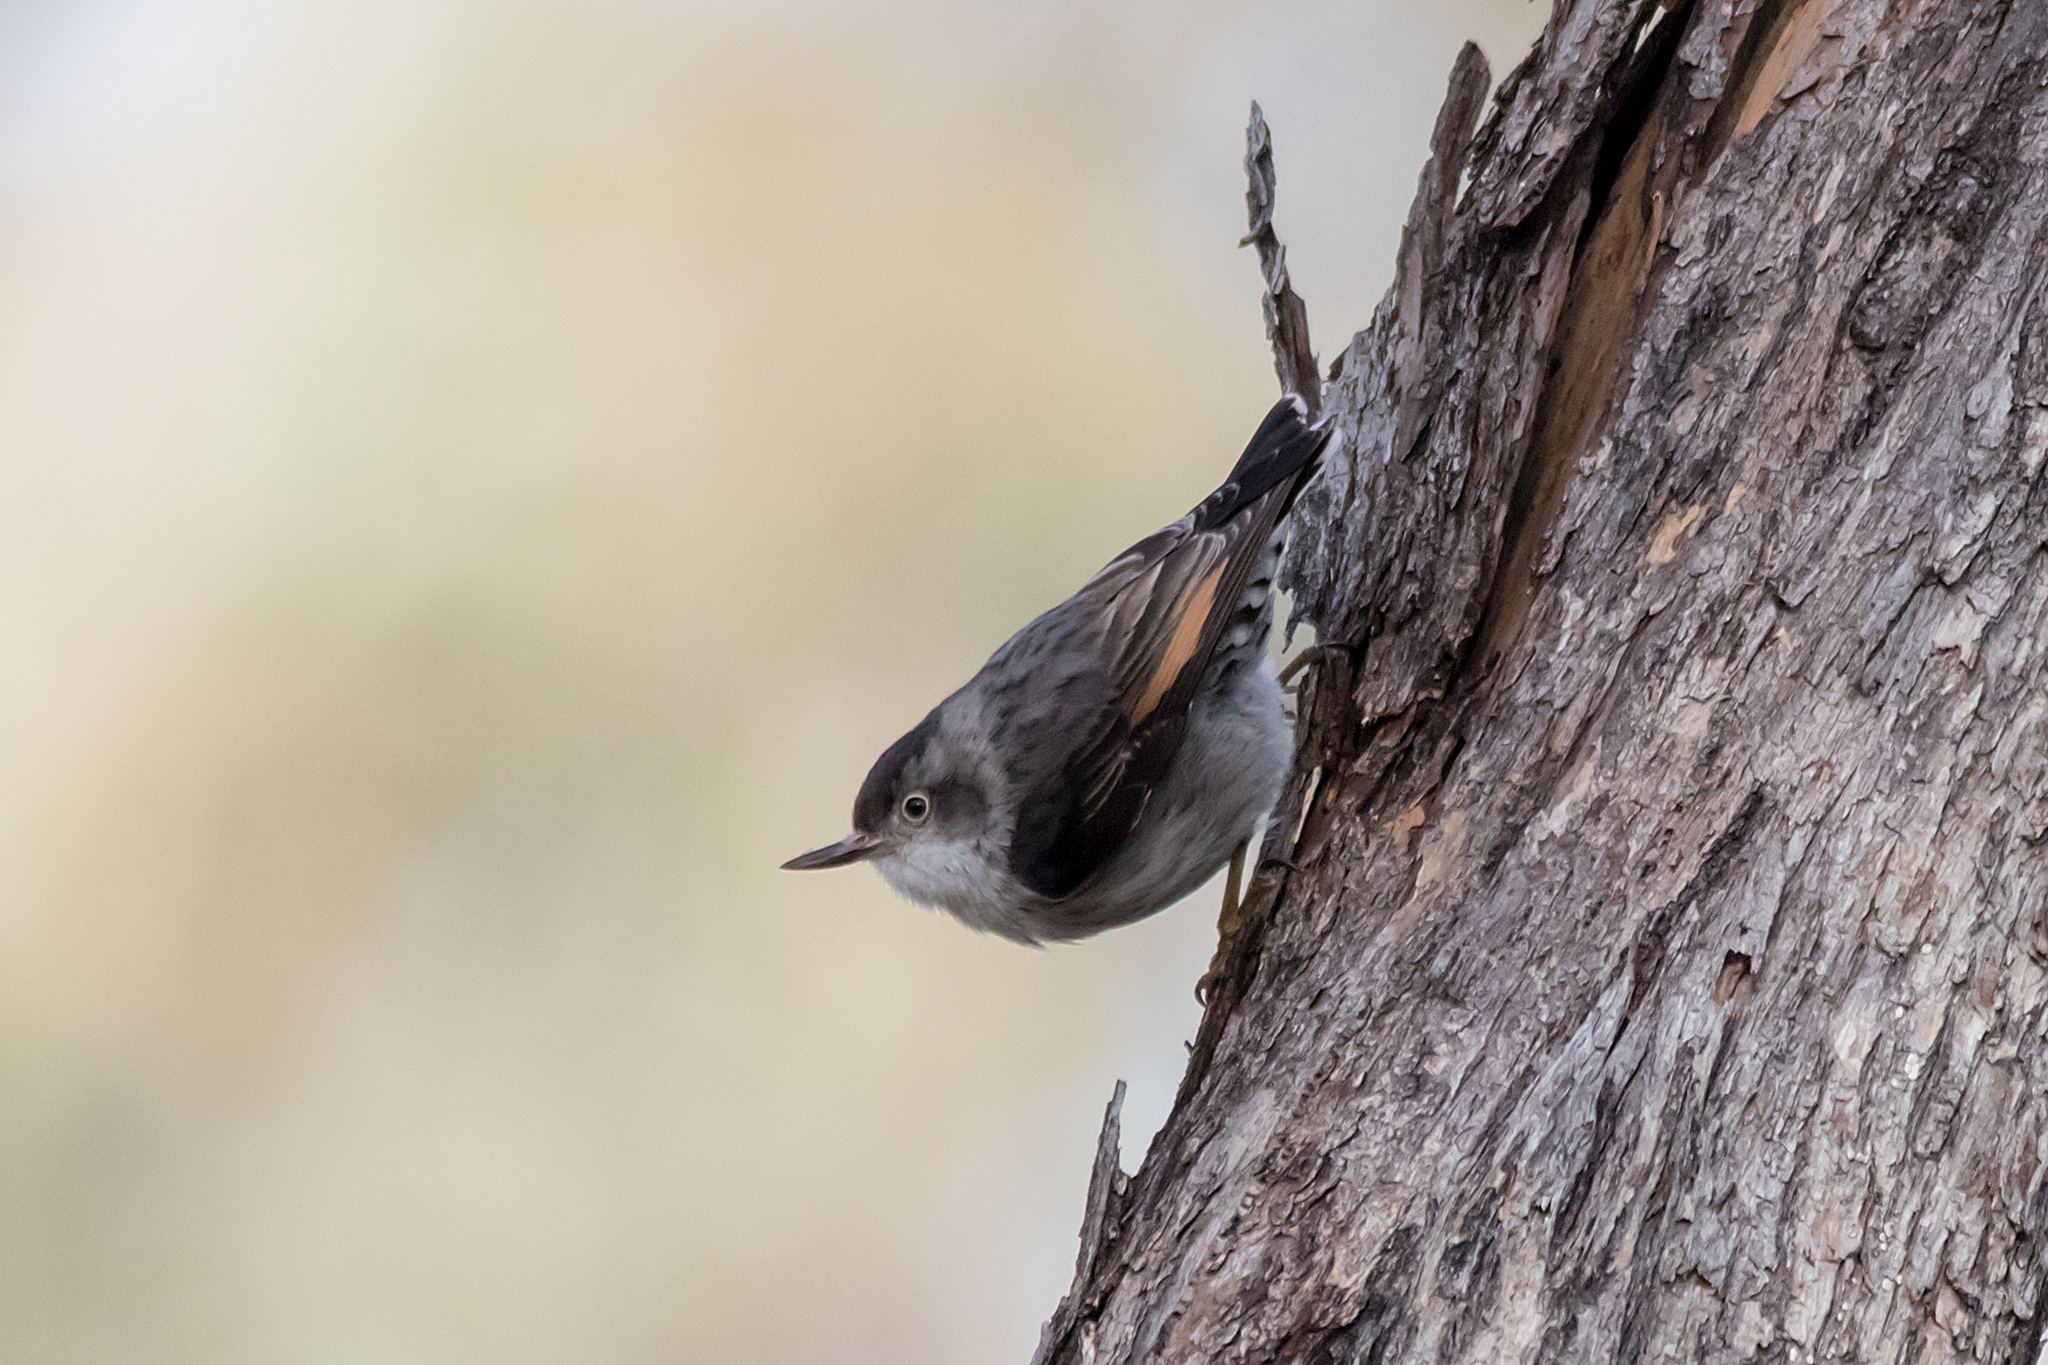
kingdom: Animalia
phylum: Chordata
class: Aves
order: Passeriformes
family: Neosittidae
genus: Daphoenositta
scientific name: Daphoenositta chrysoptera
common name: Varied sittella
